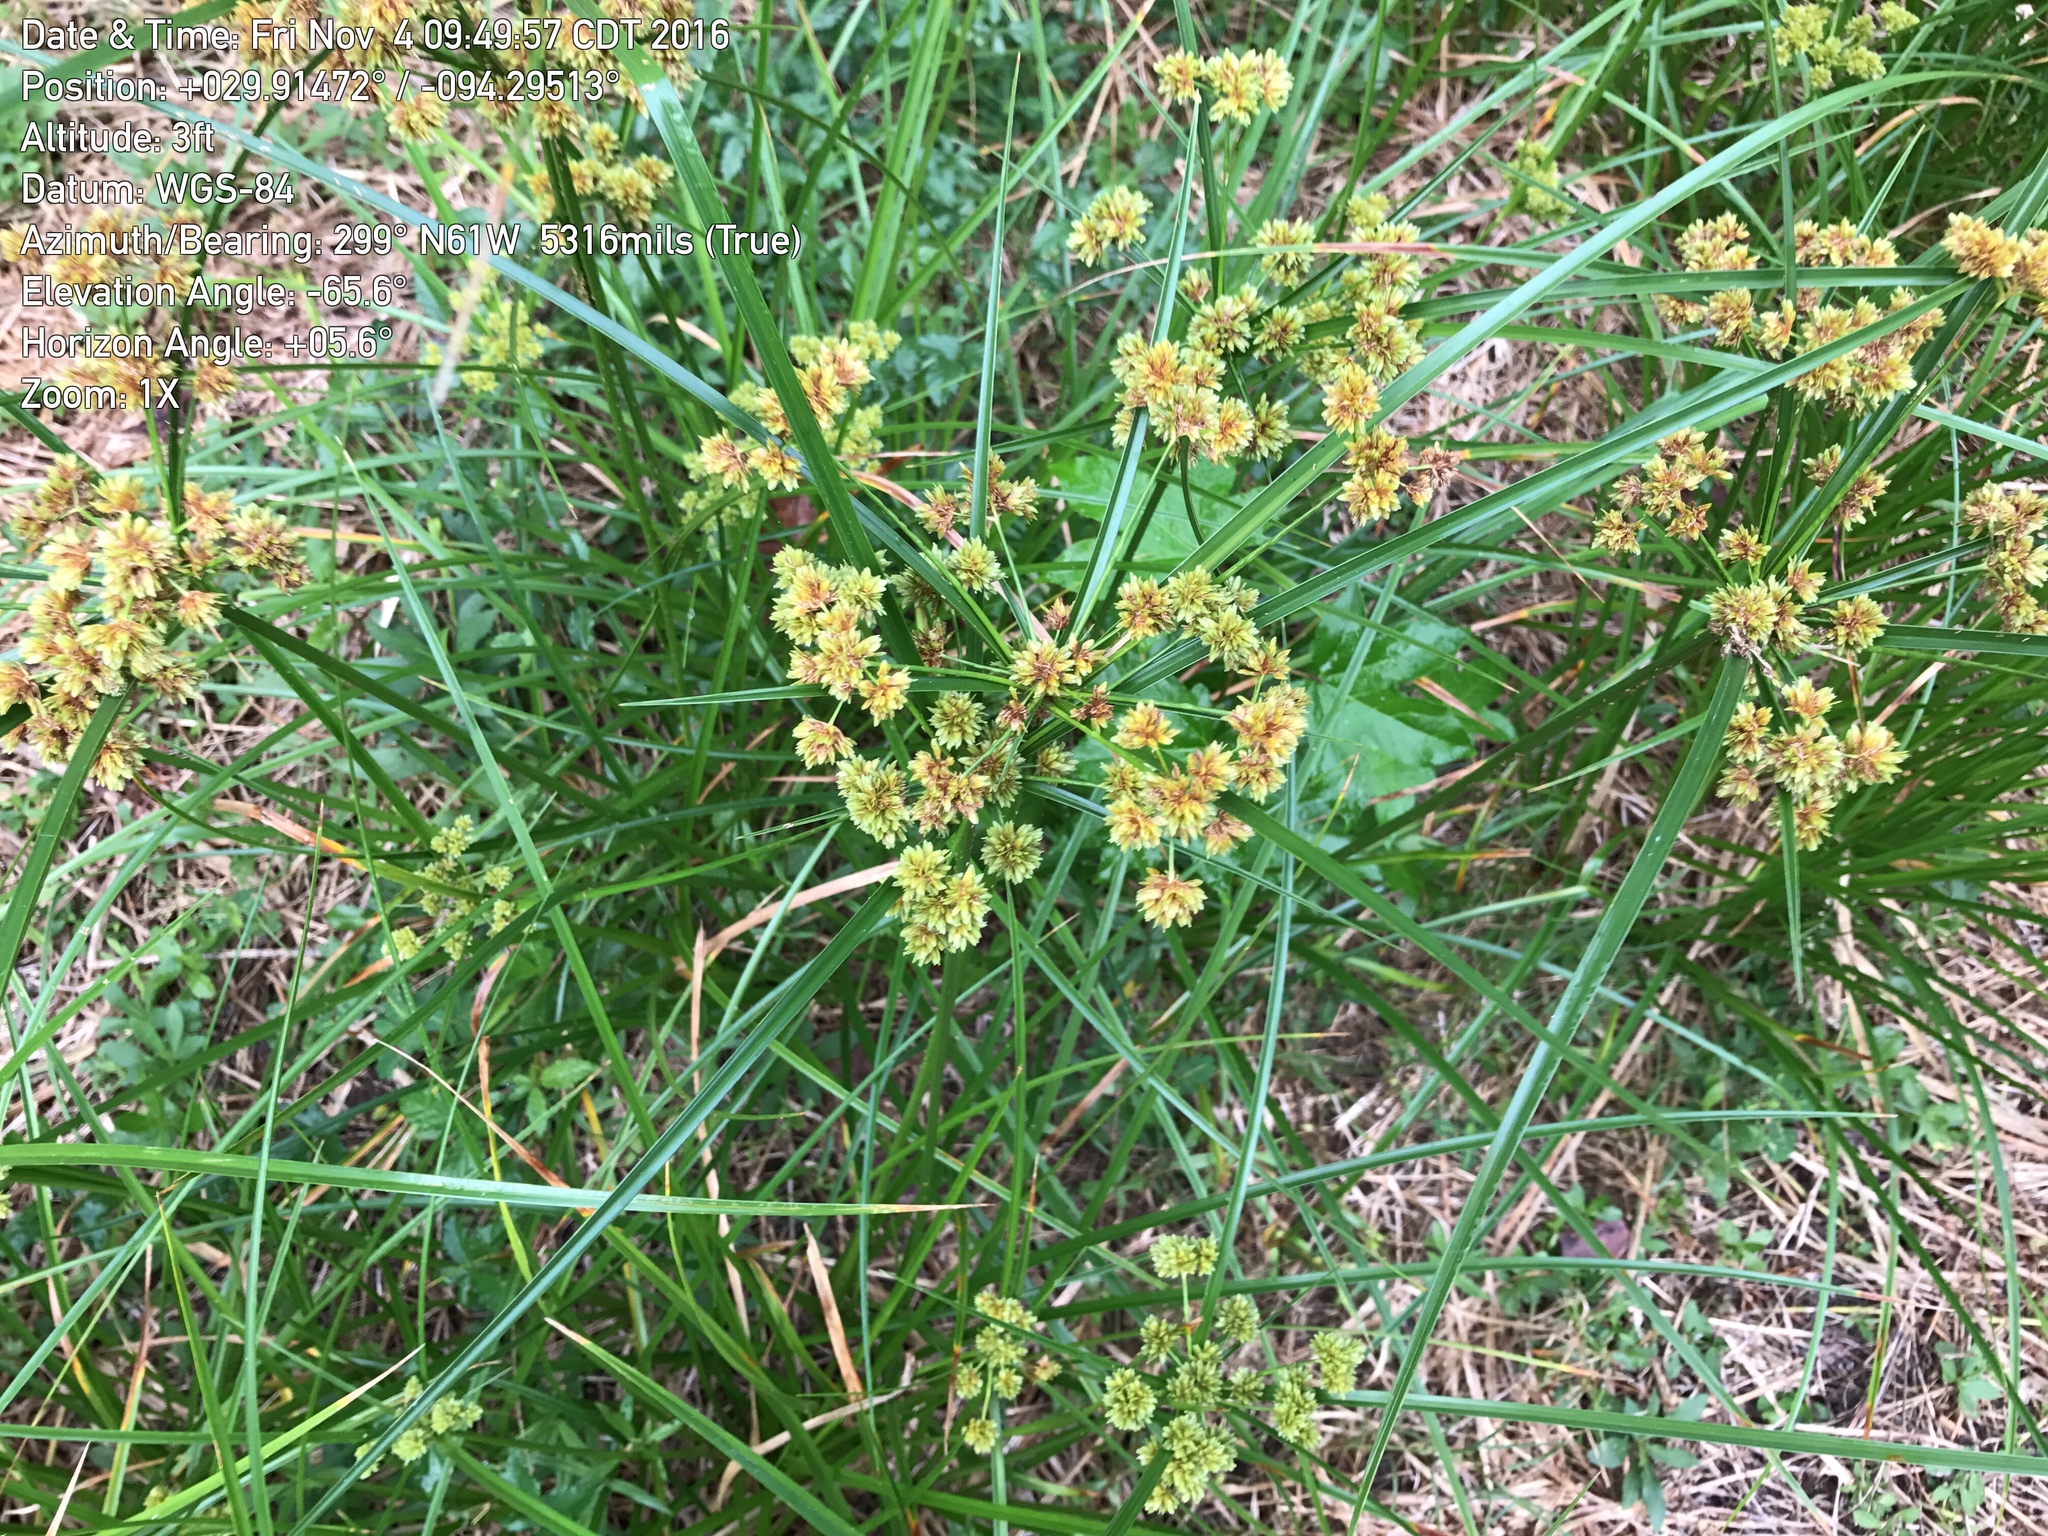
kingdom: Plantae
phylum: Tracheophyta
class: Liliopsida
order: Poales
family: Cyperaceae
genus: Cyperus
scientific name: Cyperus entrerianus
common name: Woodrush flatsedge
